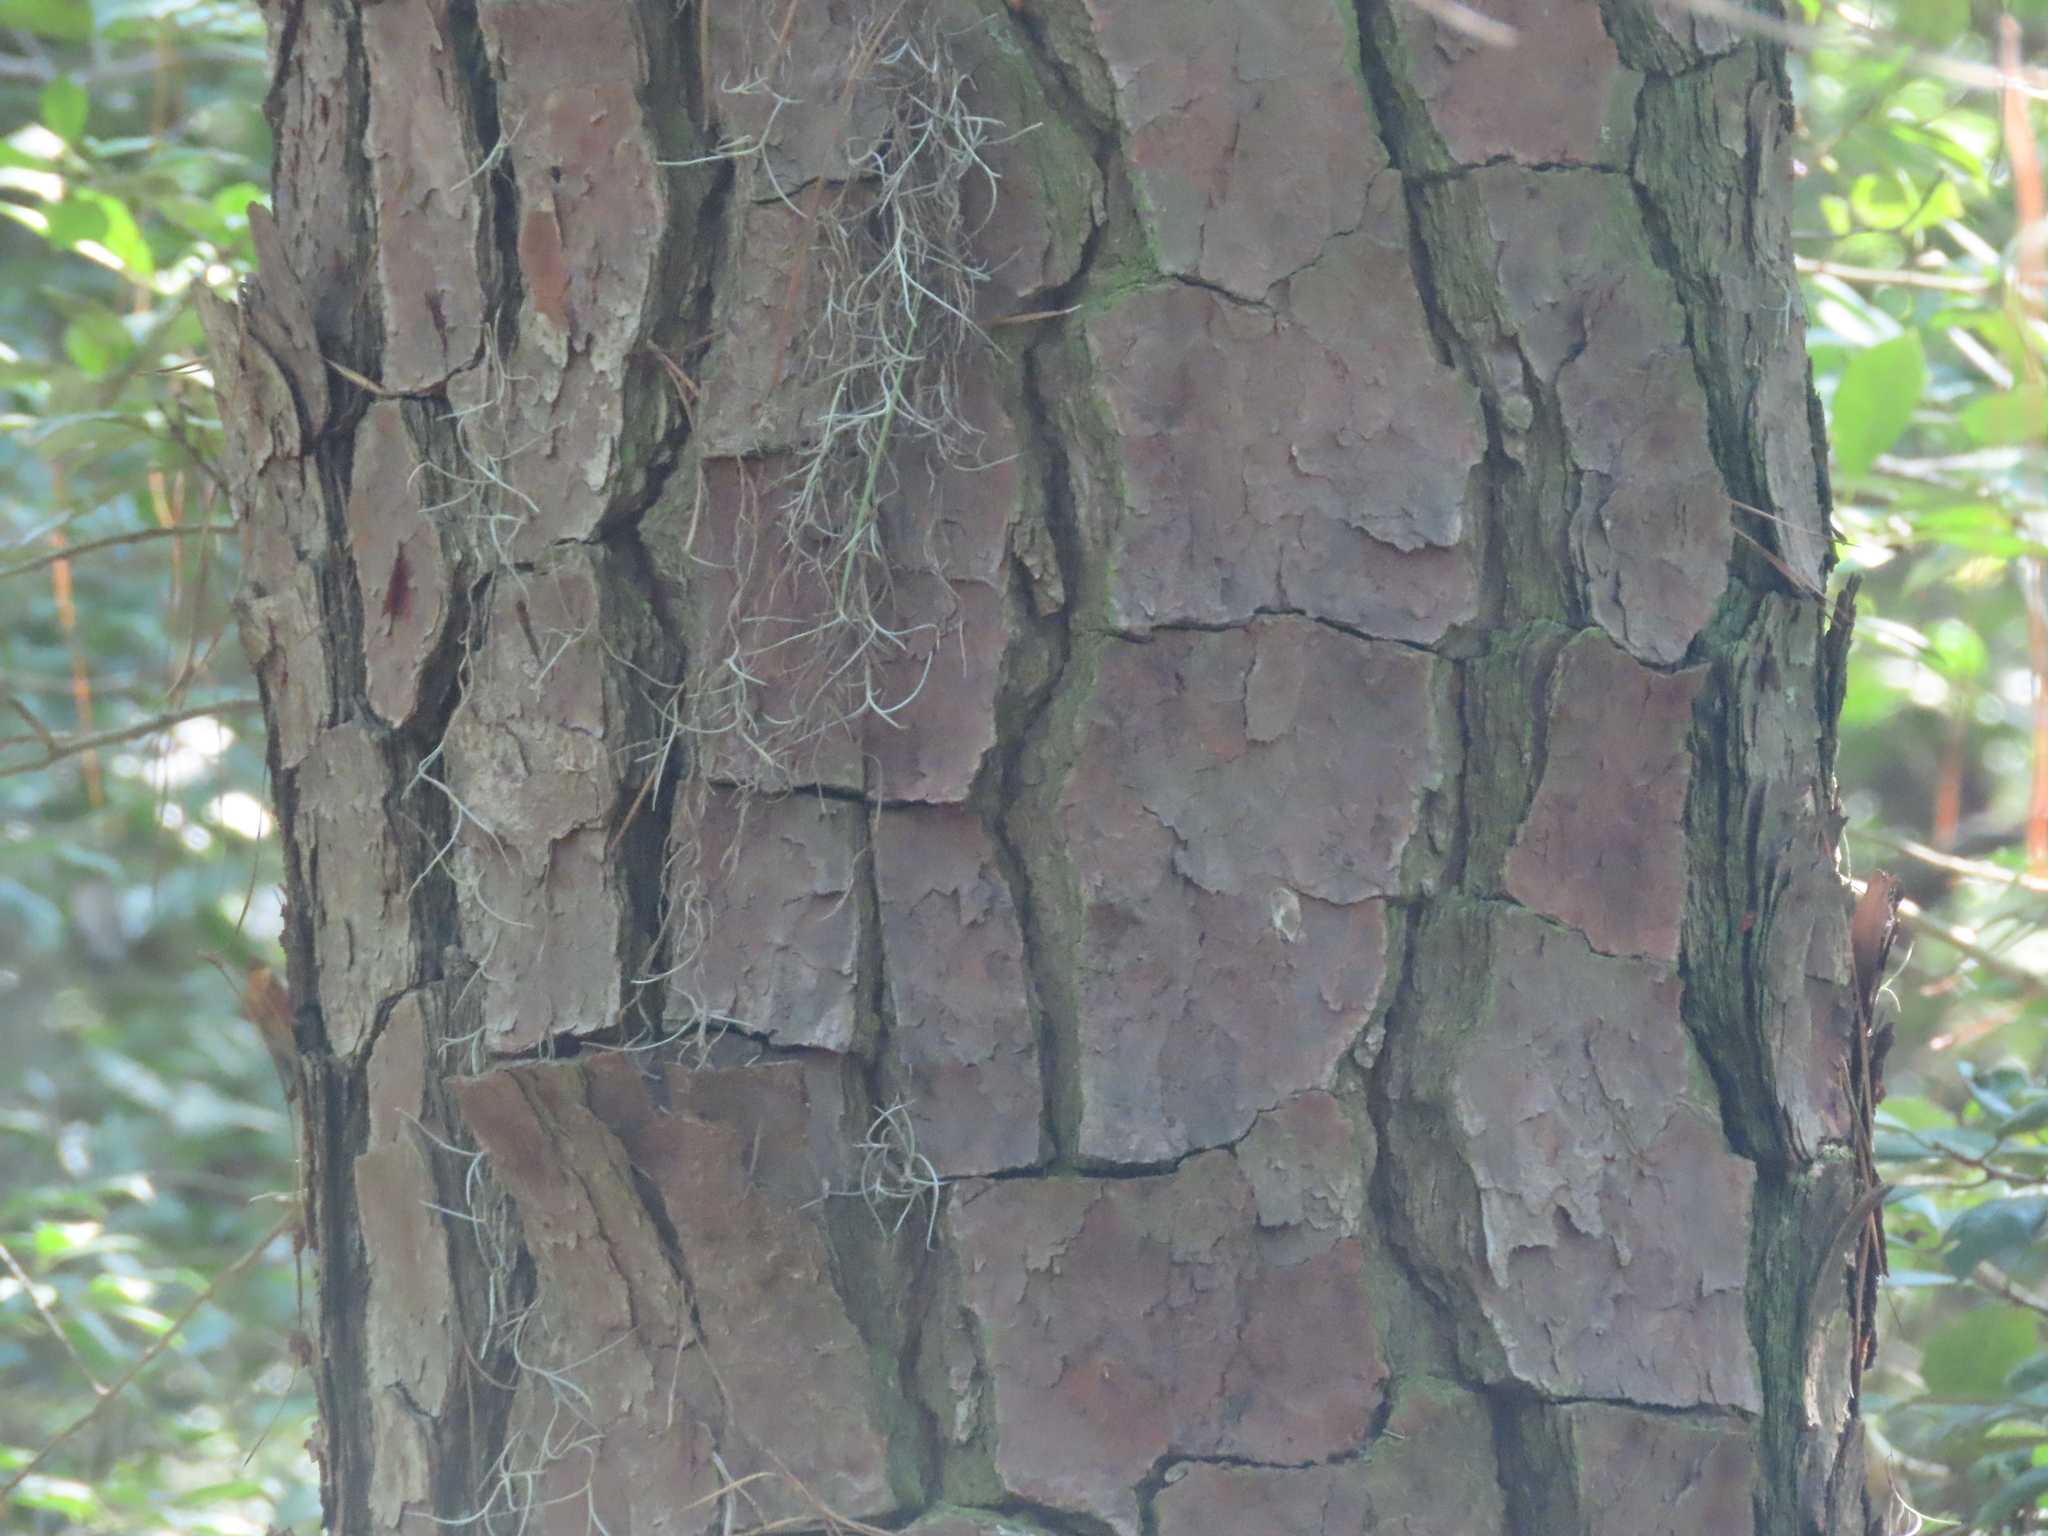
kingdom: Plantae
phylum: Tracheophyta
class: Pinopsida
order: Pinales
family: Pinaceae
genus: Pinus
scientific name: Pinus taeda
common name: Loblolly pine
